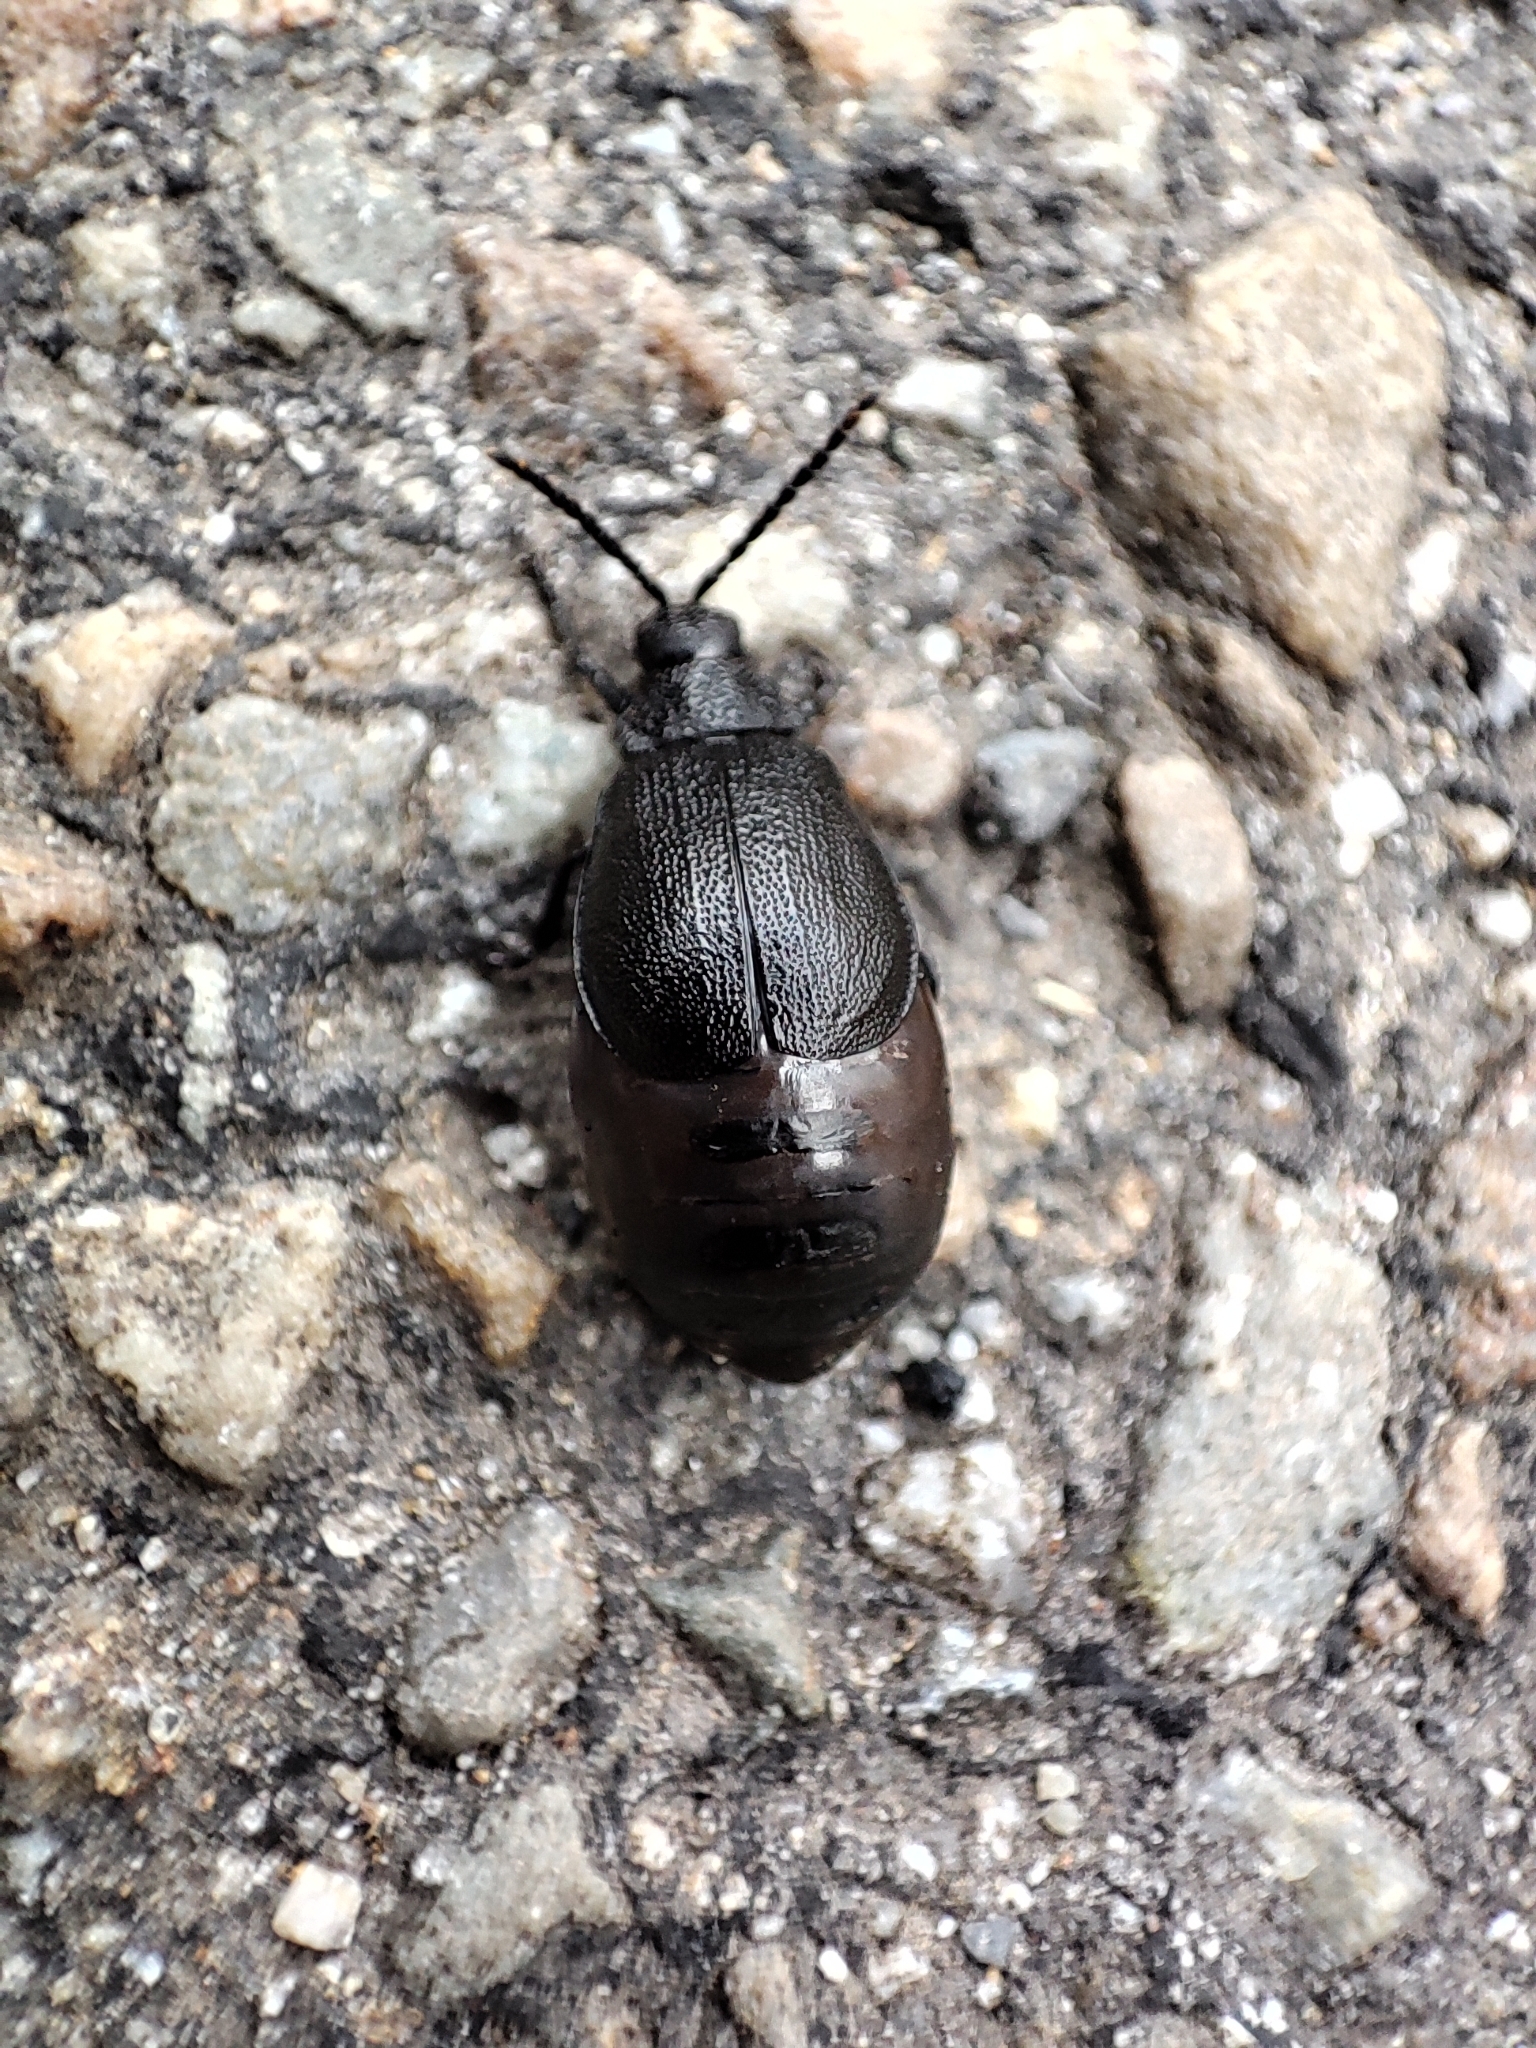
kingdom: Animalia
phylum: Arthropoda
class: Insecta
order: Coleoptera
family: Chrysomelidae
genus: Galeruca
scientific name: Galeruca tanaceti
